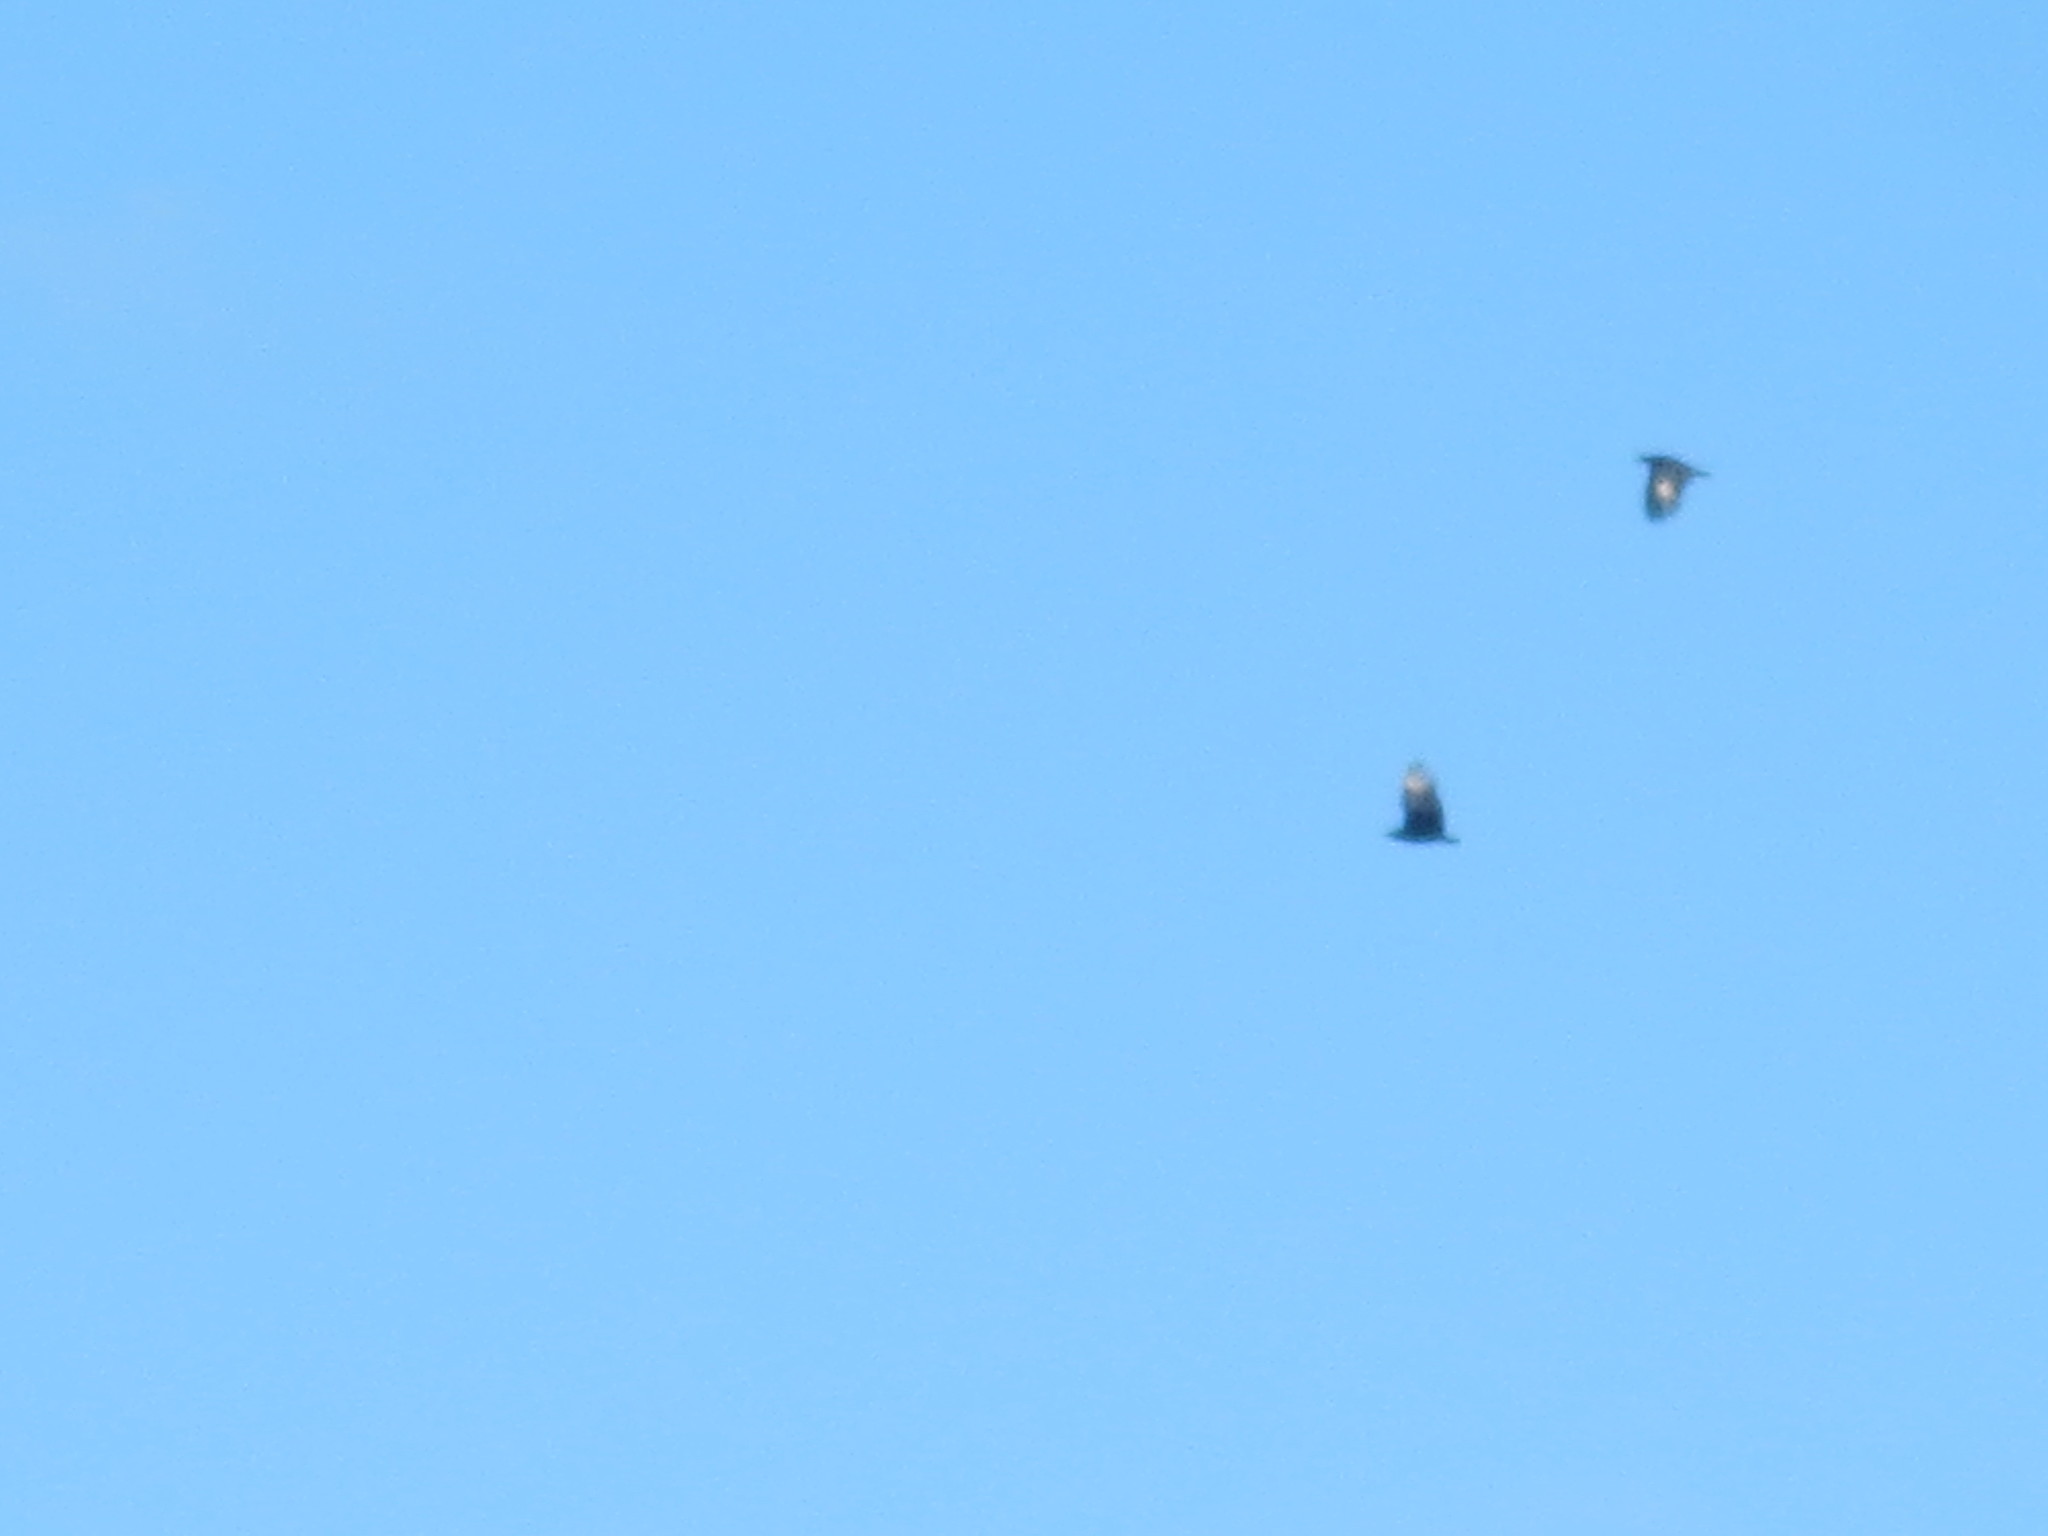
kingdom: Animalia
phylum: Chordata
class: Aves
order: Accipitriformes
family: Cathartidae
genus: Coragyps
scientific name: Coragyps atratus
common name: Black vulture
